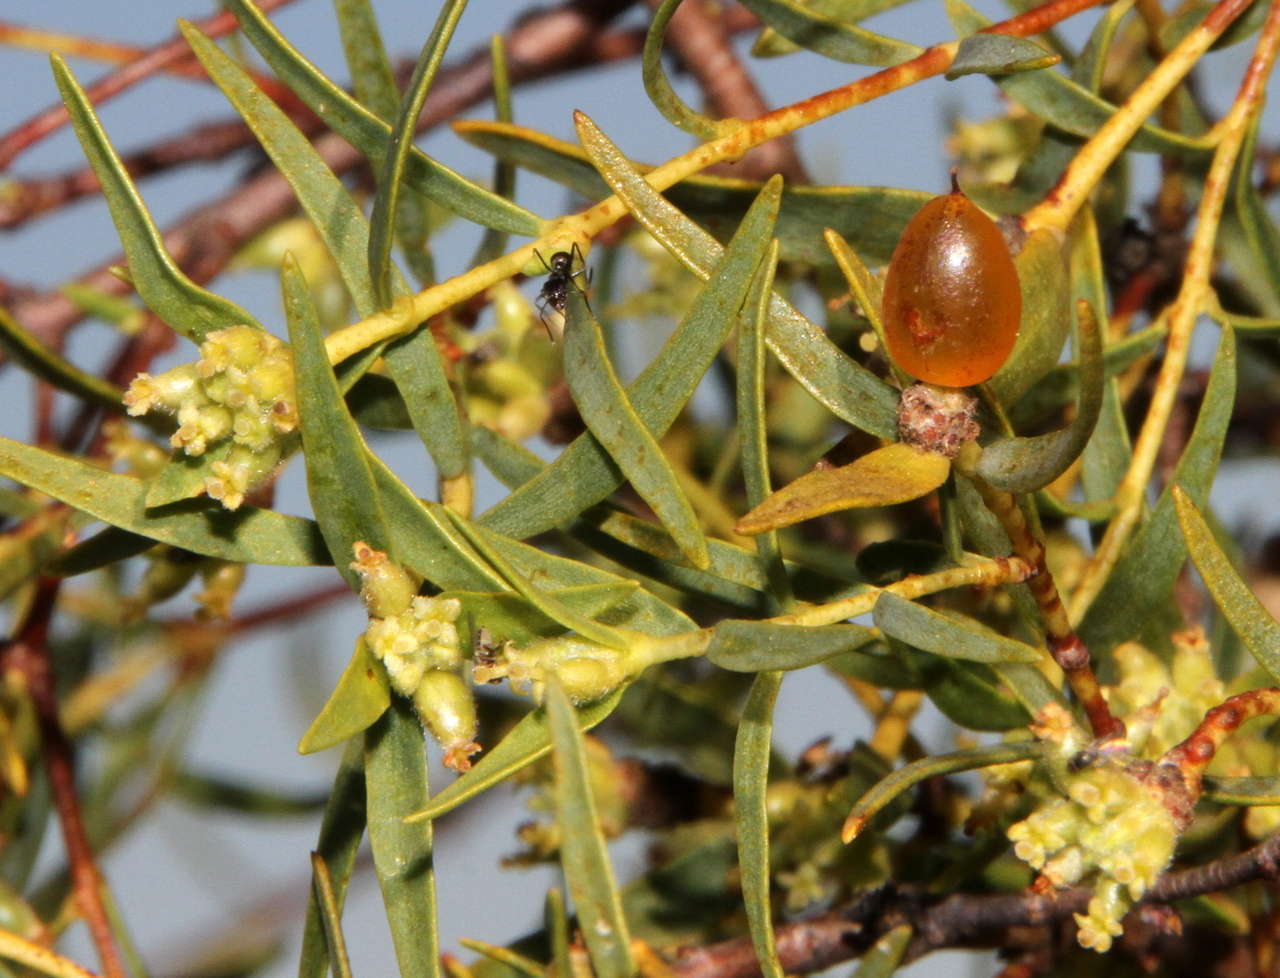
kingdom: Plantae
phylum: Tracheophyta
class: Magnoliopsida
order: Malvales
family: Thymelaeaceae
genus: Pimelea
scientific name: Pimelea microcephala
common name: Mallee riceflower
